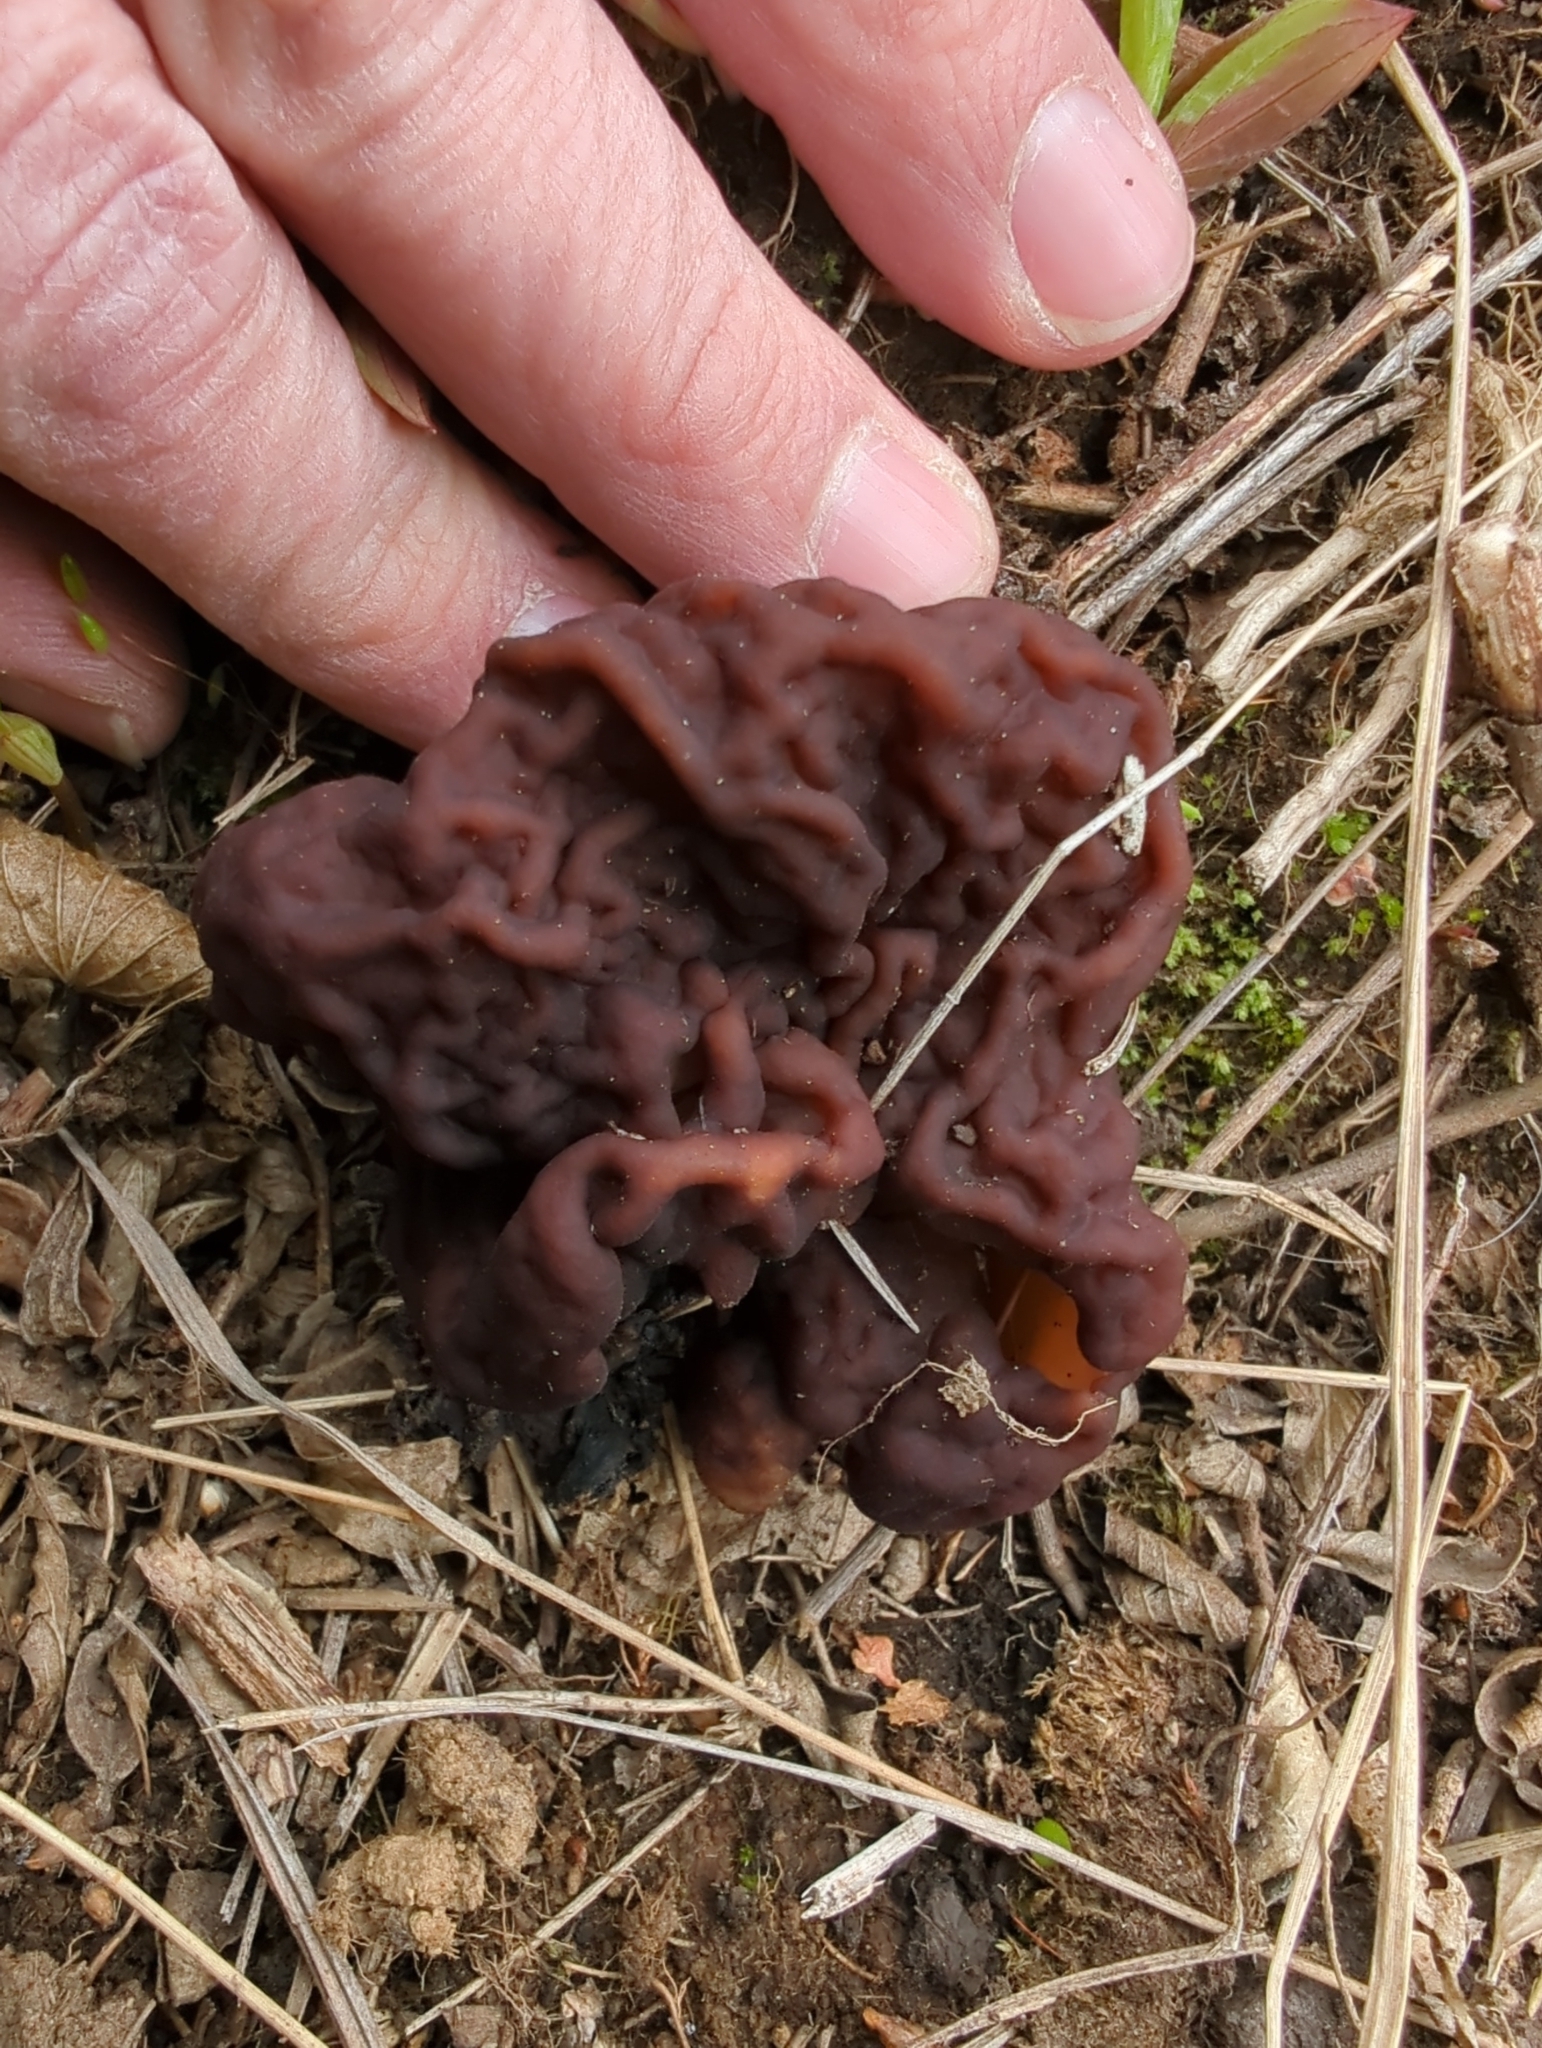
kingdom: Fungi
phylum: Ascomycota
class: Pezizomycetes
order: Pezizales
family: Discinaceae
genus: Gyromitra
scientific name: Gyromitra esculenta
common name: False morel
